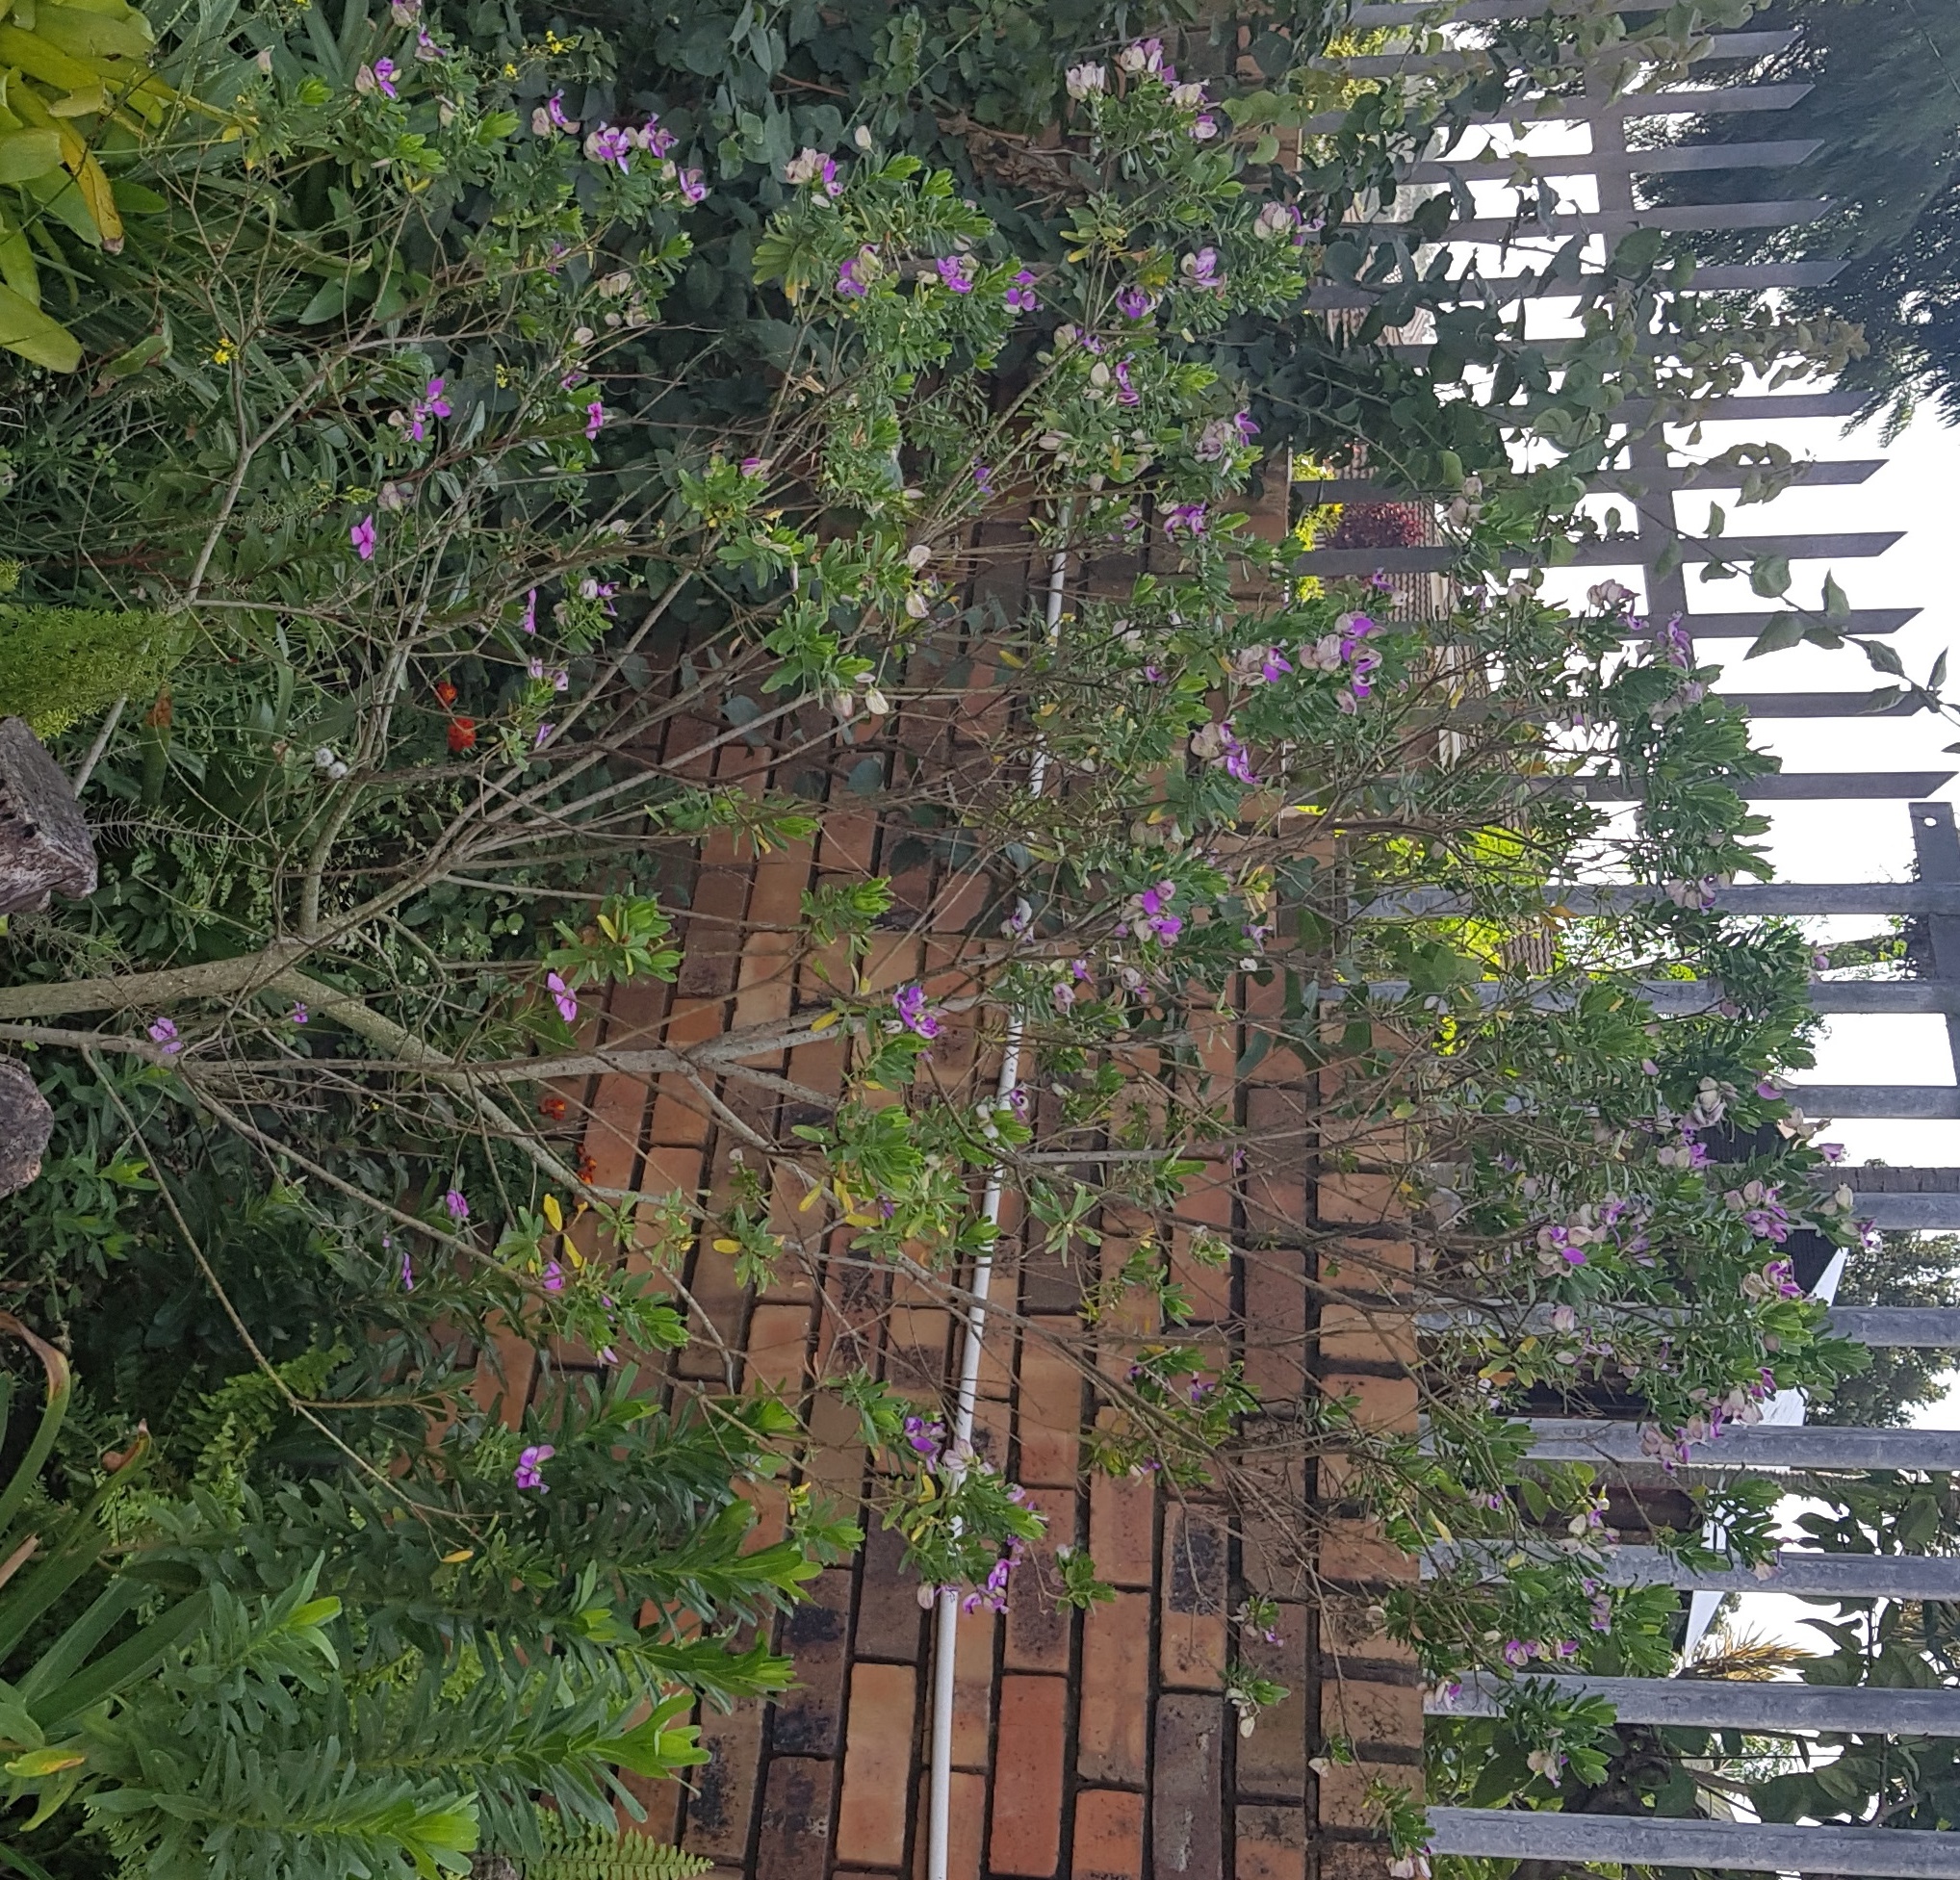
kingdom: Plantae
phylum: Tracheophyta
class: Magnoliopsida
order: Fabales
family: Polygalaceae
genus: Polygala
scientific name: Polygala myrtifolia
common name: Myrtle-leaf milkwort
